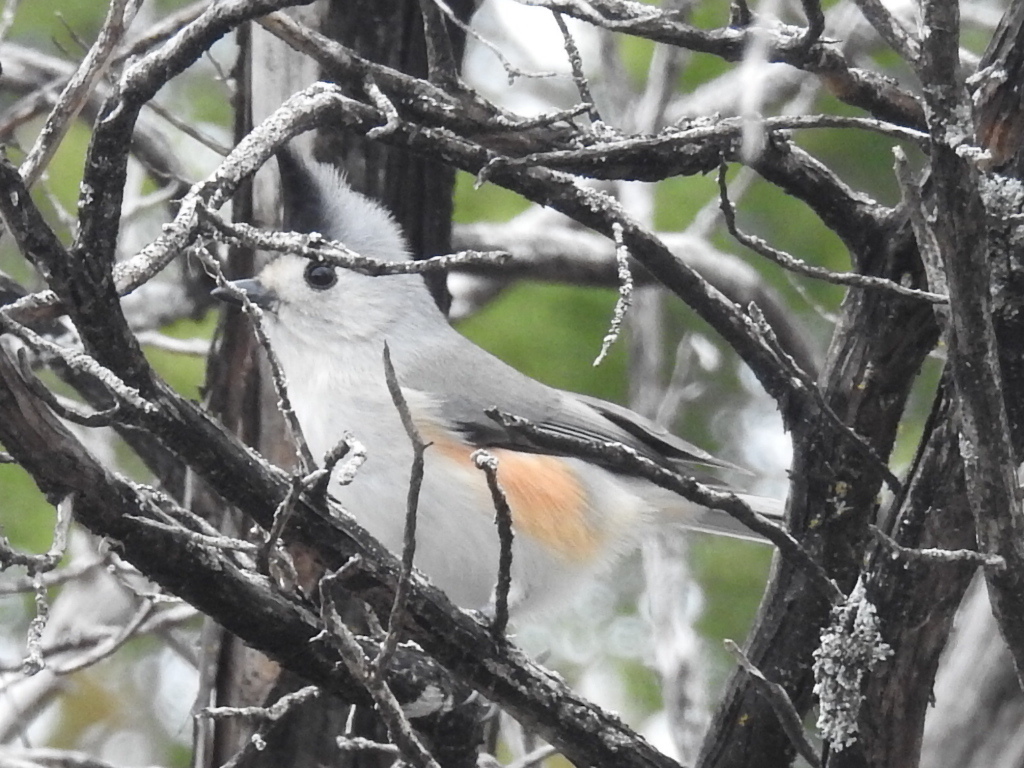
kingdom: Animalia
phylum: Chordata
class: Aves
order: Passeriformes
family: Paridae
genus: Baeolophus
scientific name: Baeolophus atricristatus
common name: Black-crested titmouse
